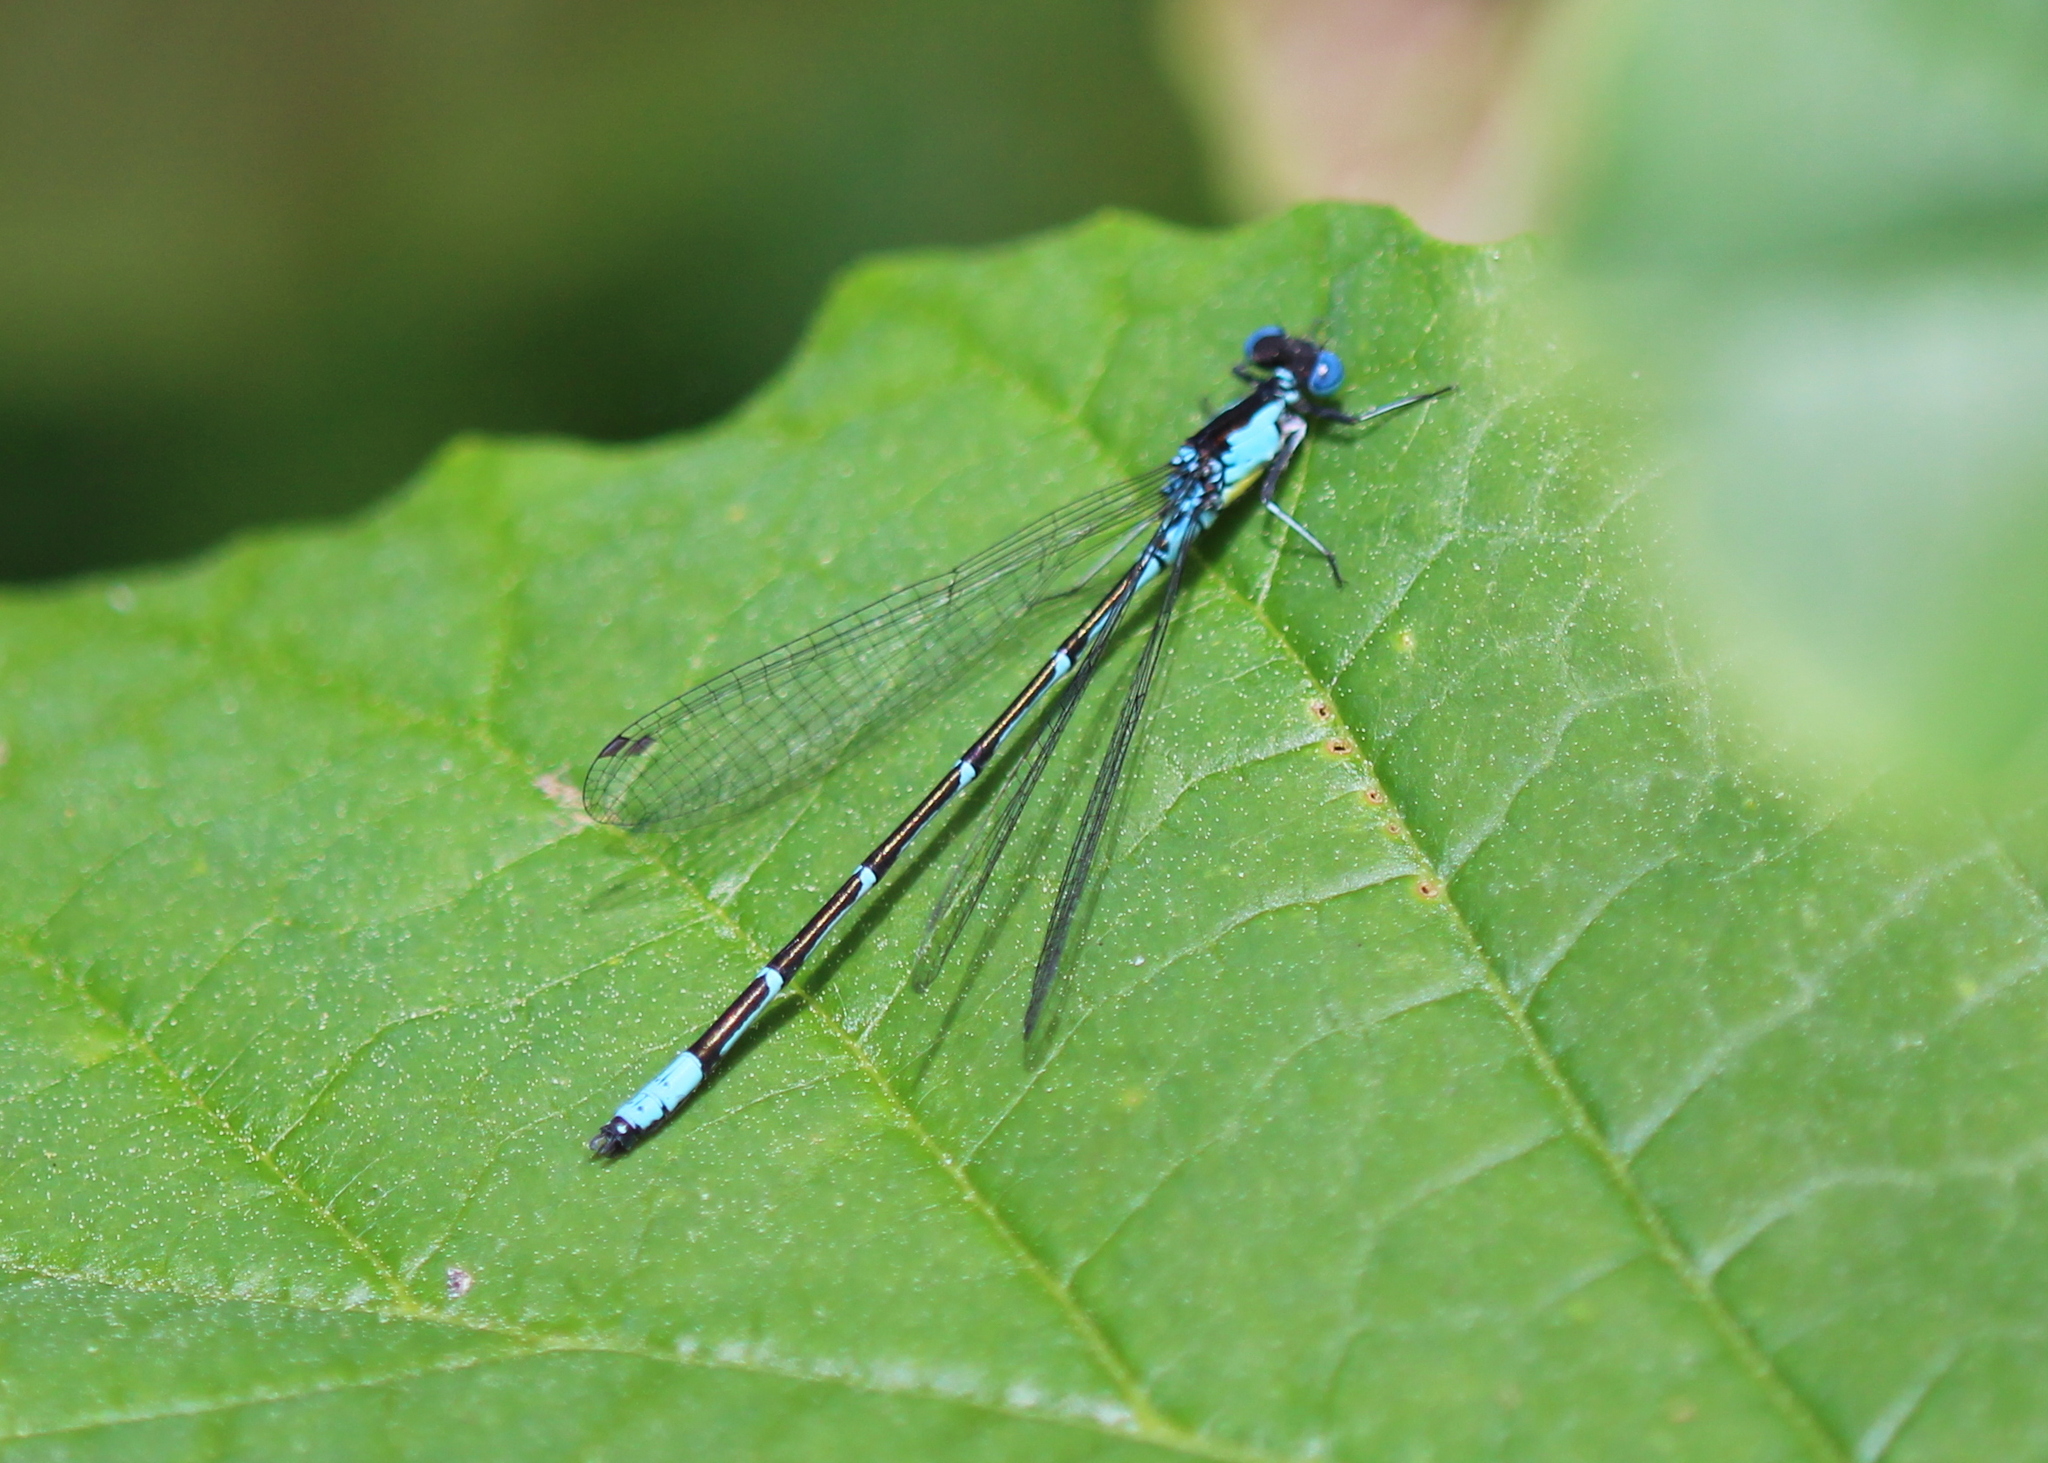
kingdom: Animalia
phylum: Arthropoda
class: Insecta
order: Odonata
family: Coenagrionidae
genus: Chromagrion
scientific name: Chromagrion conditum
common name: Aurora damsel
